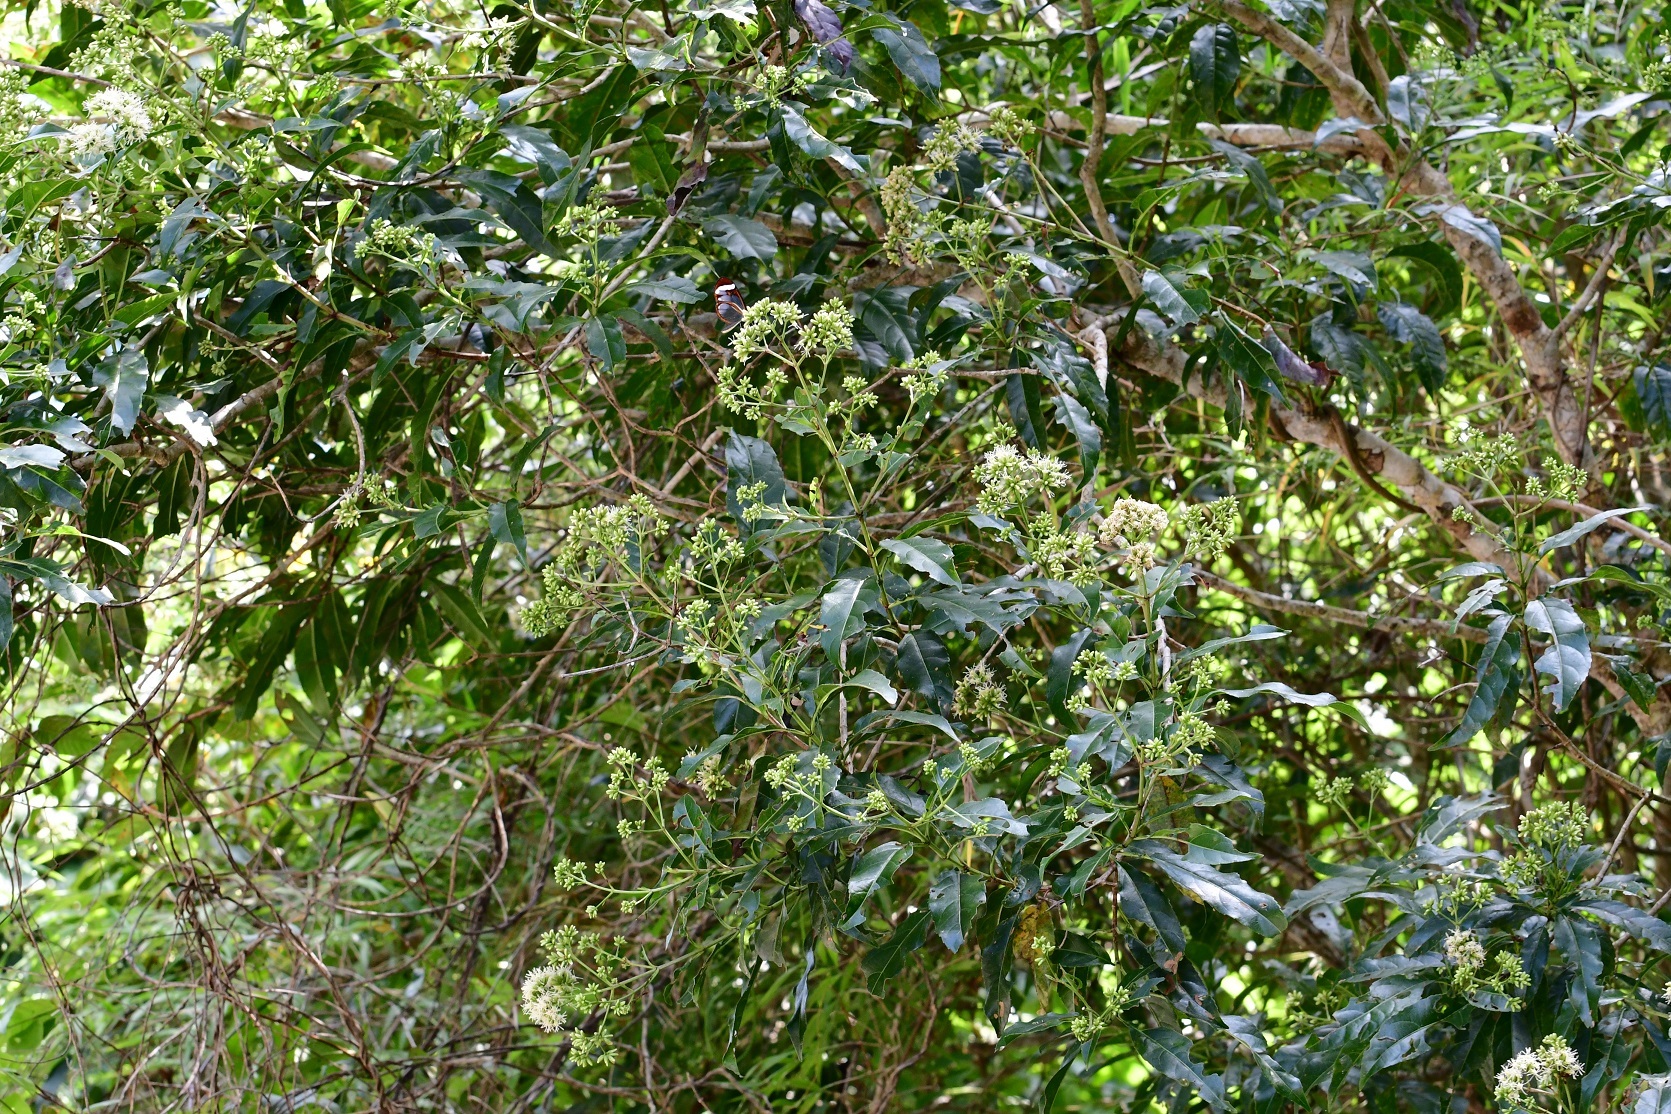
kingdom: Plantae
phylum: Tracheophyta
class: Magnoliopsida
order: Asterales
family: Asteraceae
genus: Critonia
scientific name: Critonia hospitalis
